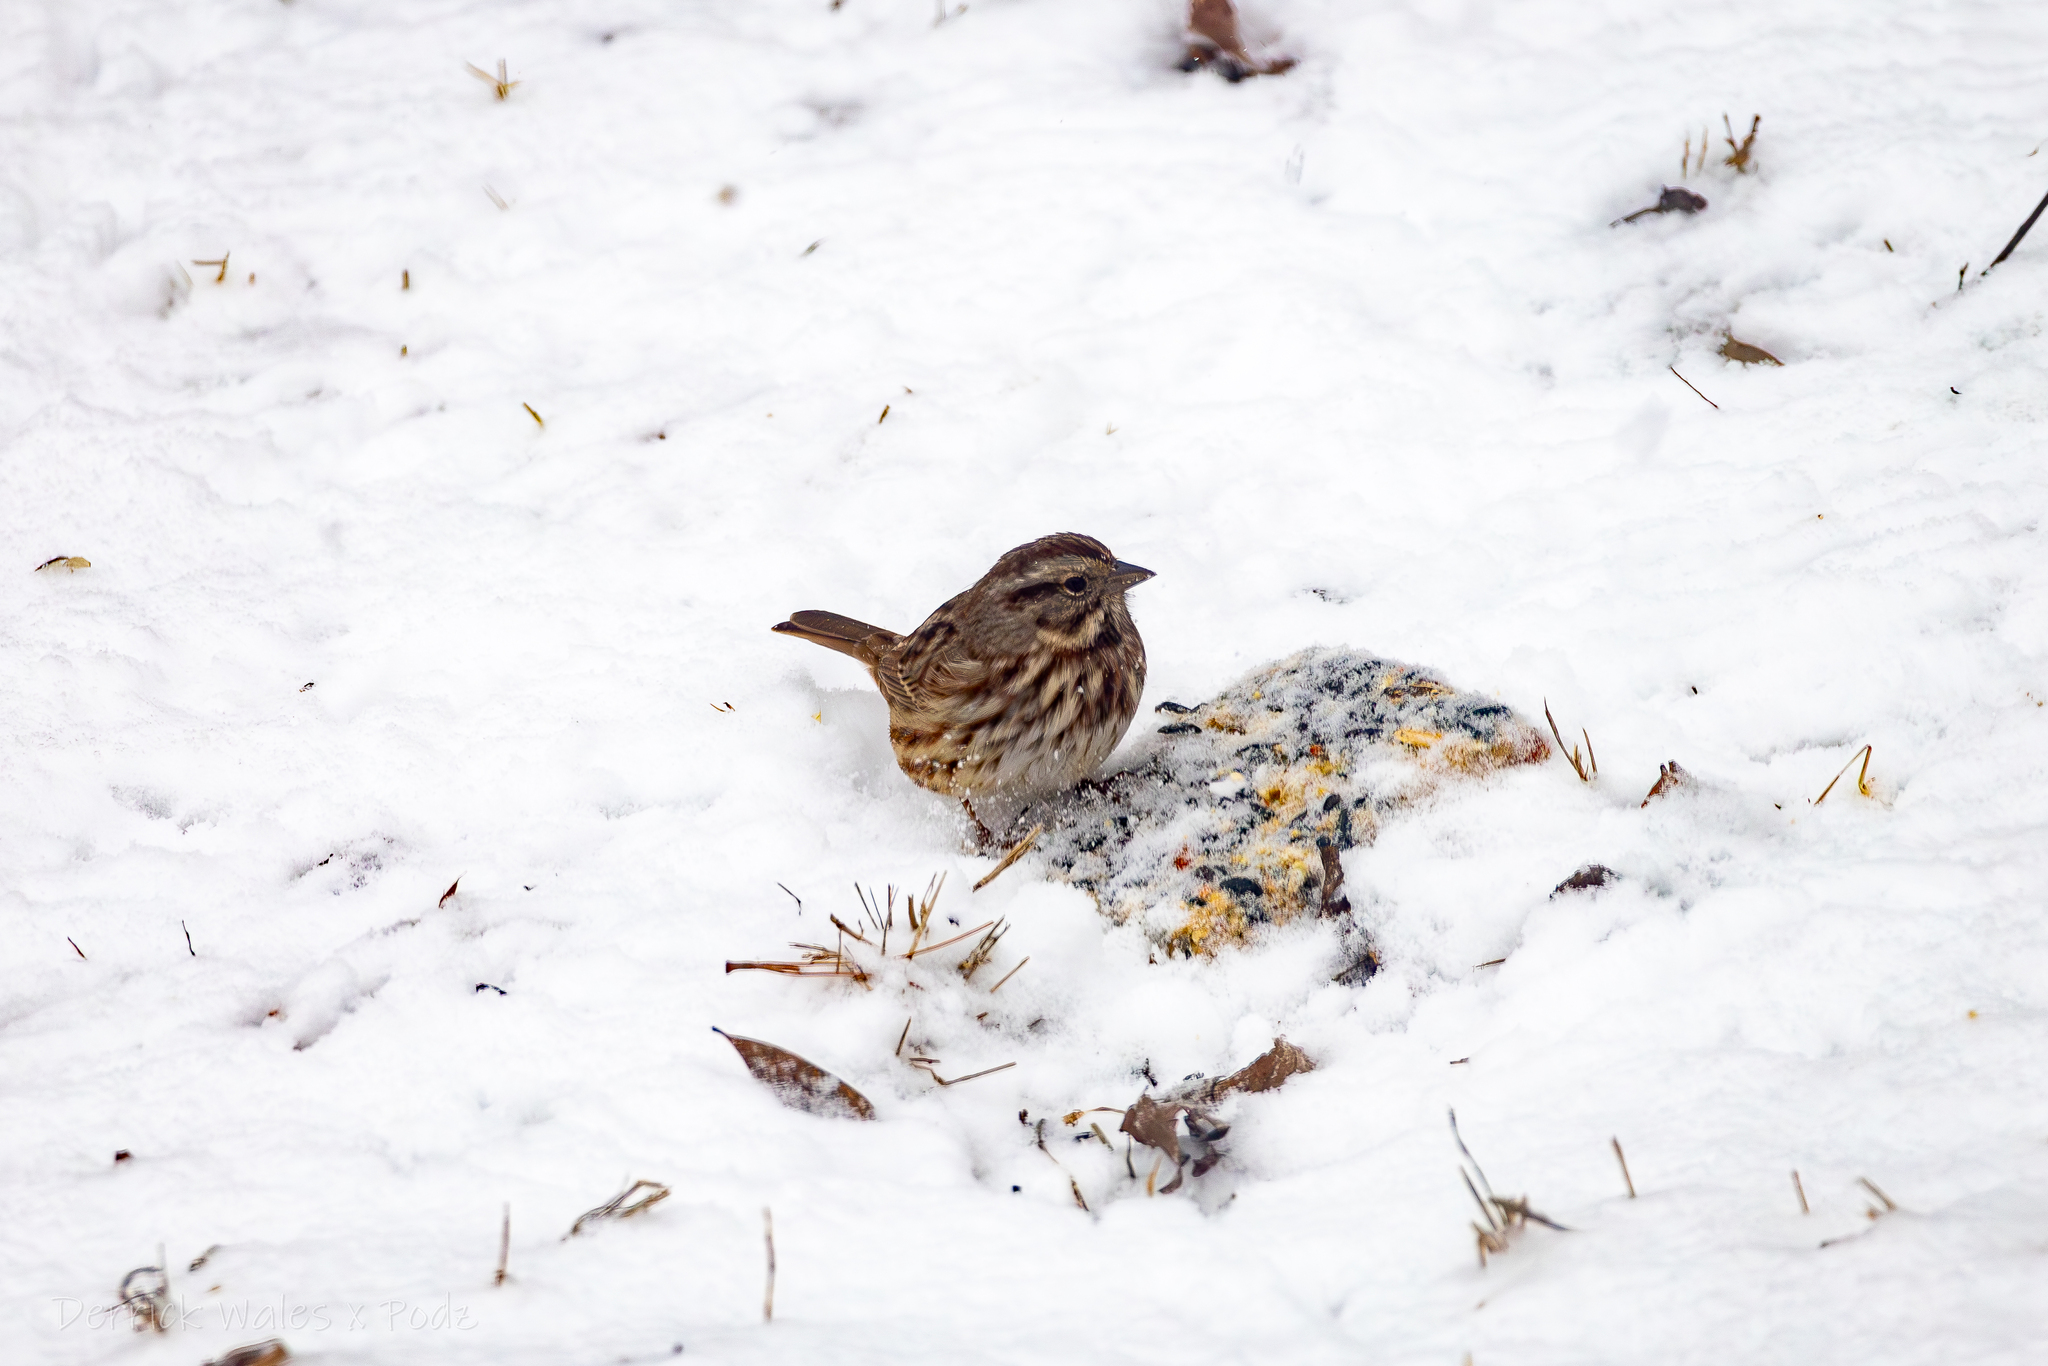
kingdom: Animalia
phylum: Chordata
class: Aves
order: Passeriformes
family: Passerellidae
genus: Melospiza
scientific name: Melospiza melodia
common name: Song sparrow
